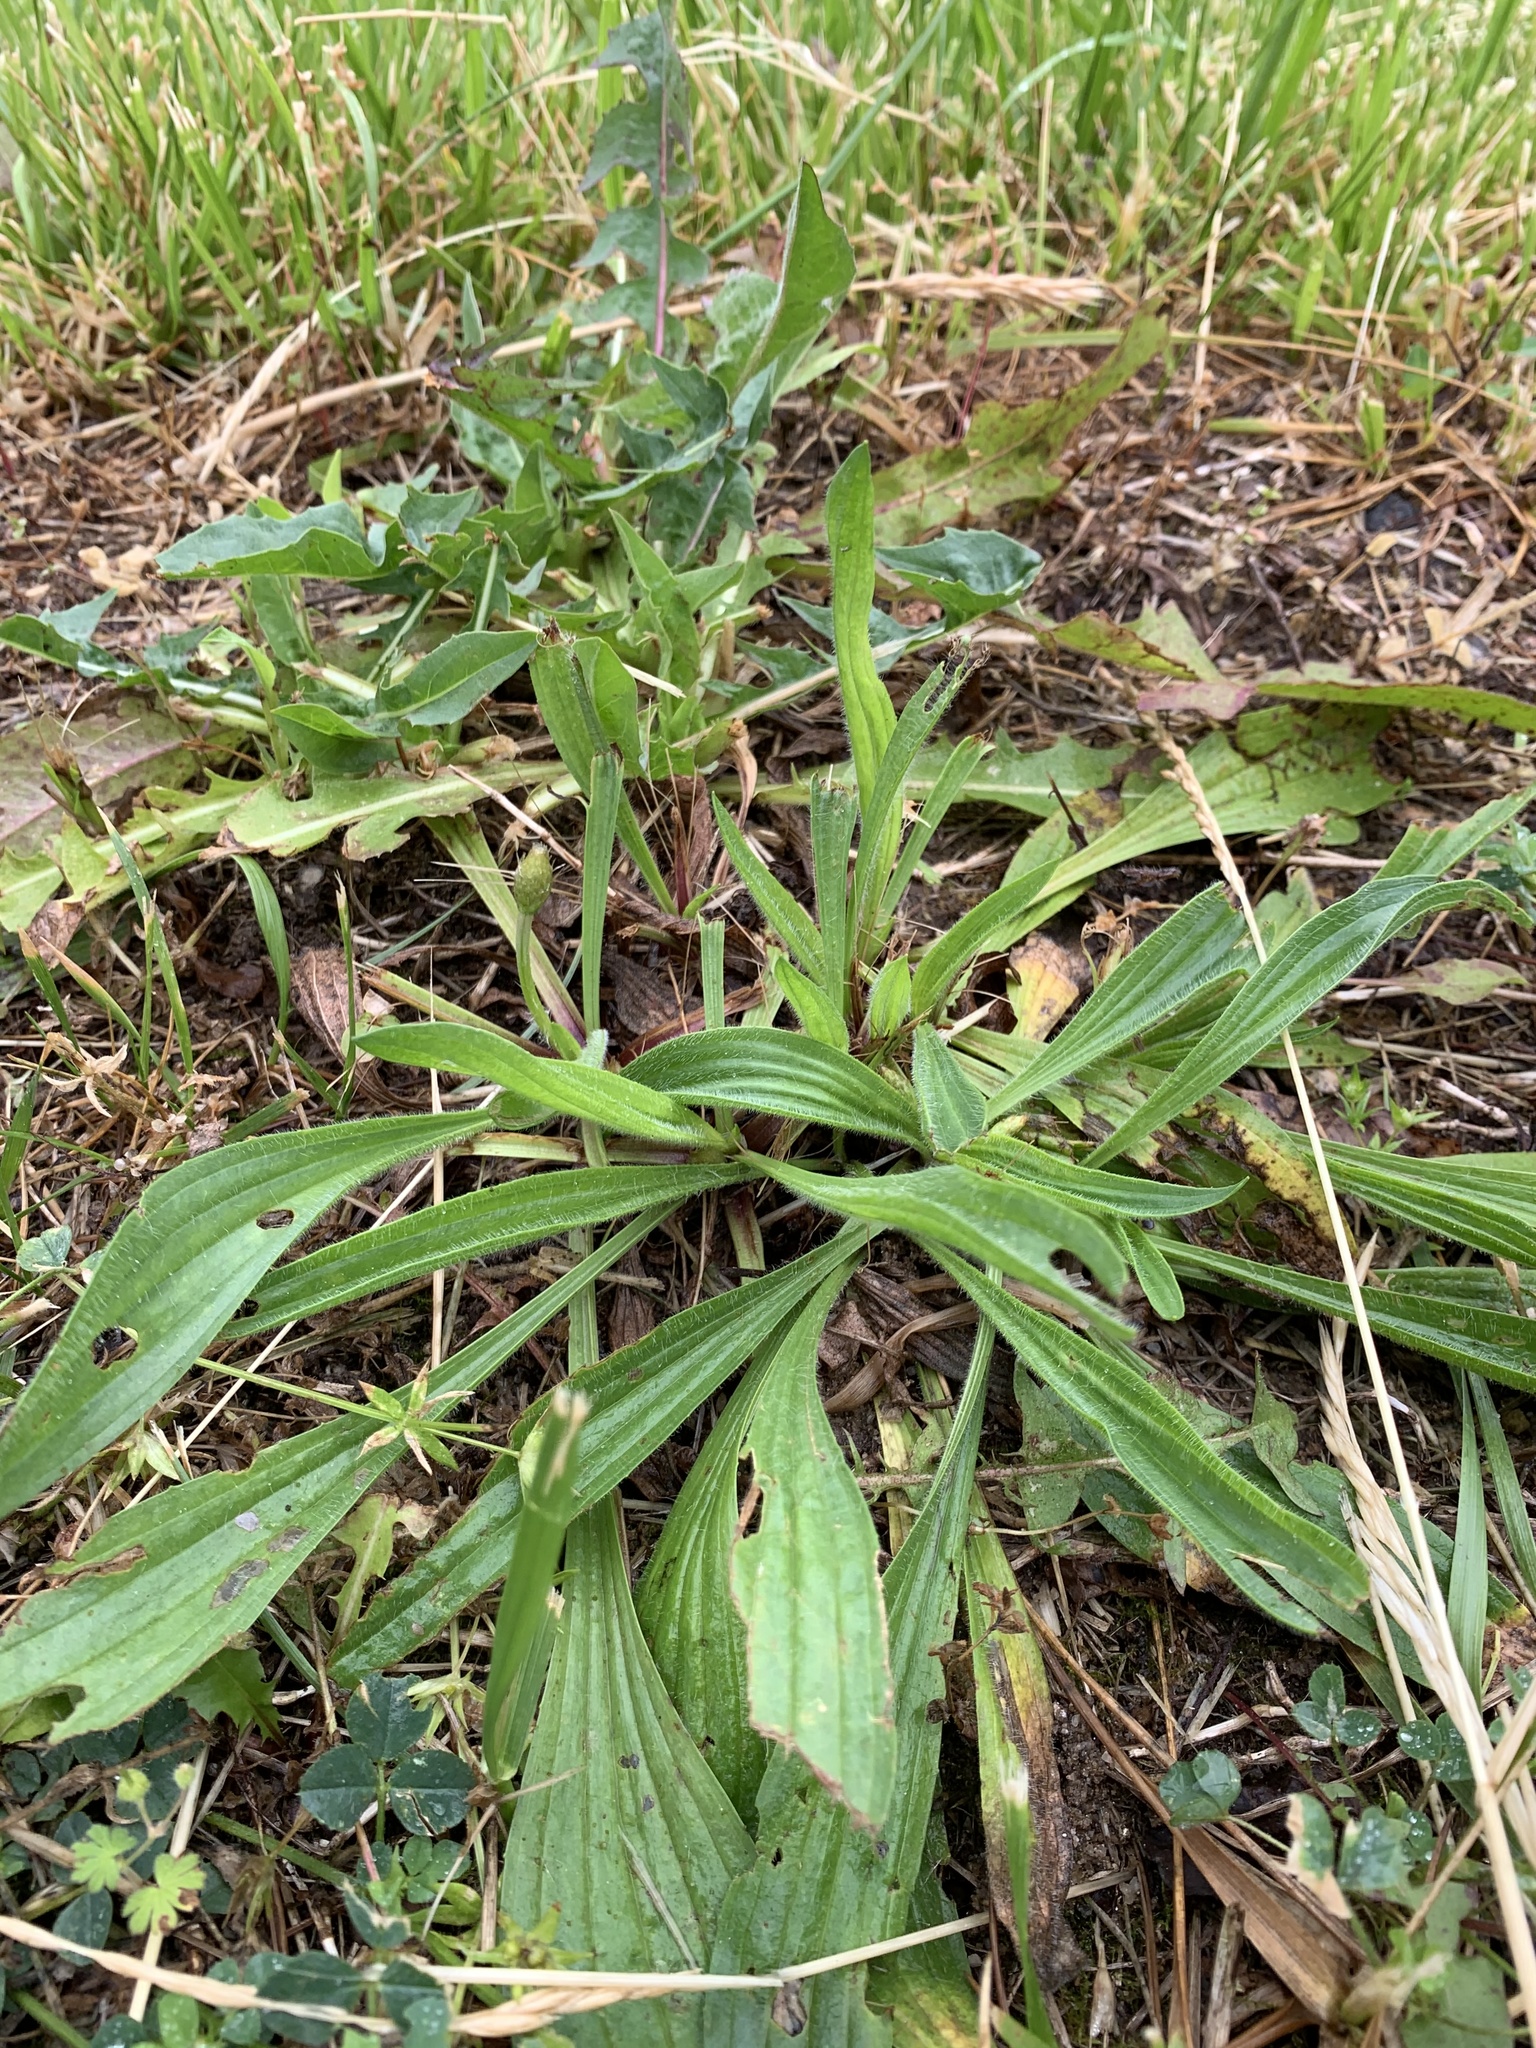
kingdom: Plantae
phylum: Tracheophyta
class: Magnoliopsida
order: Lamiales
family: Plantaginaceae
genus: Plantago
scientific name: Plantago lanceolata
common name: Ribwort plantain
